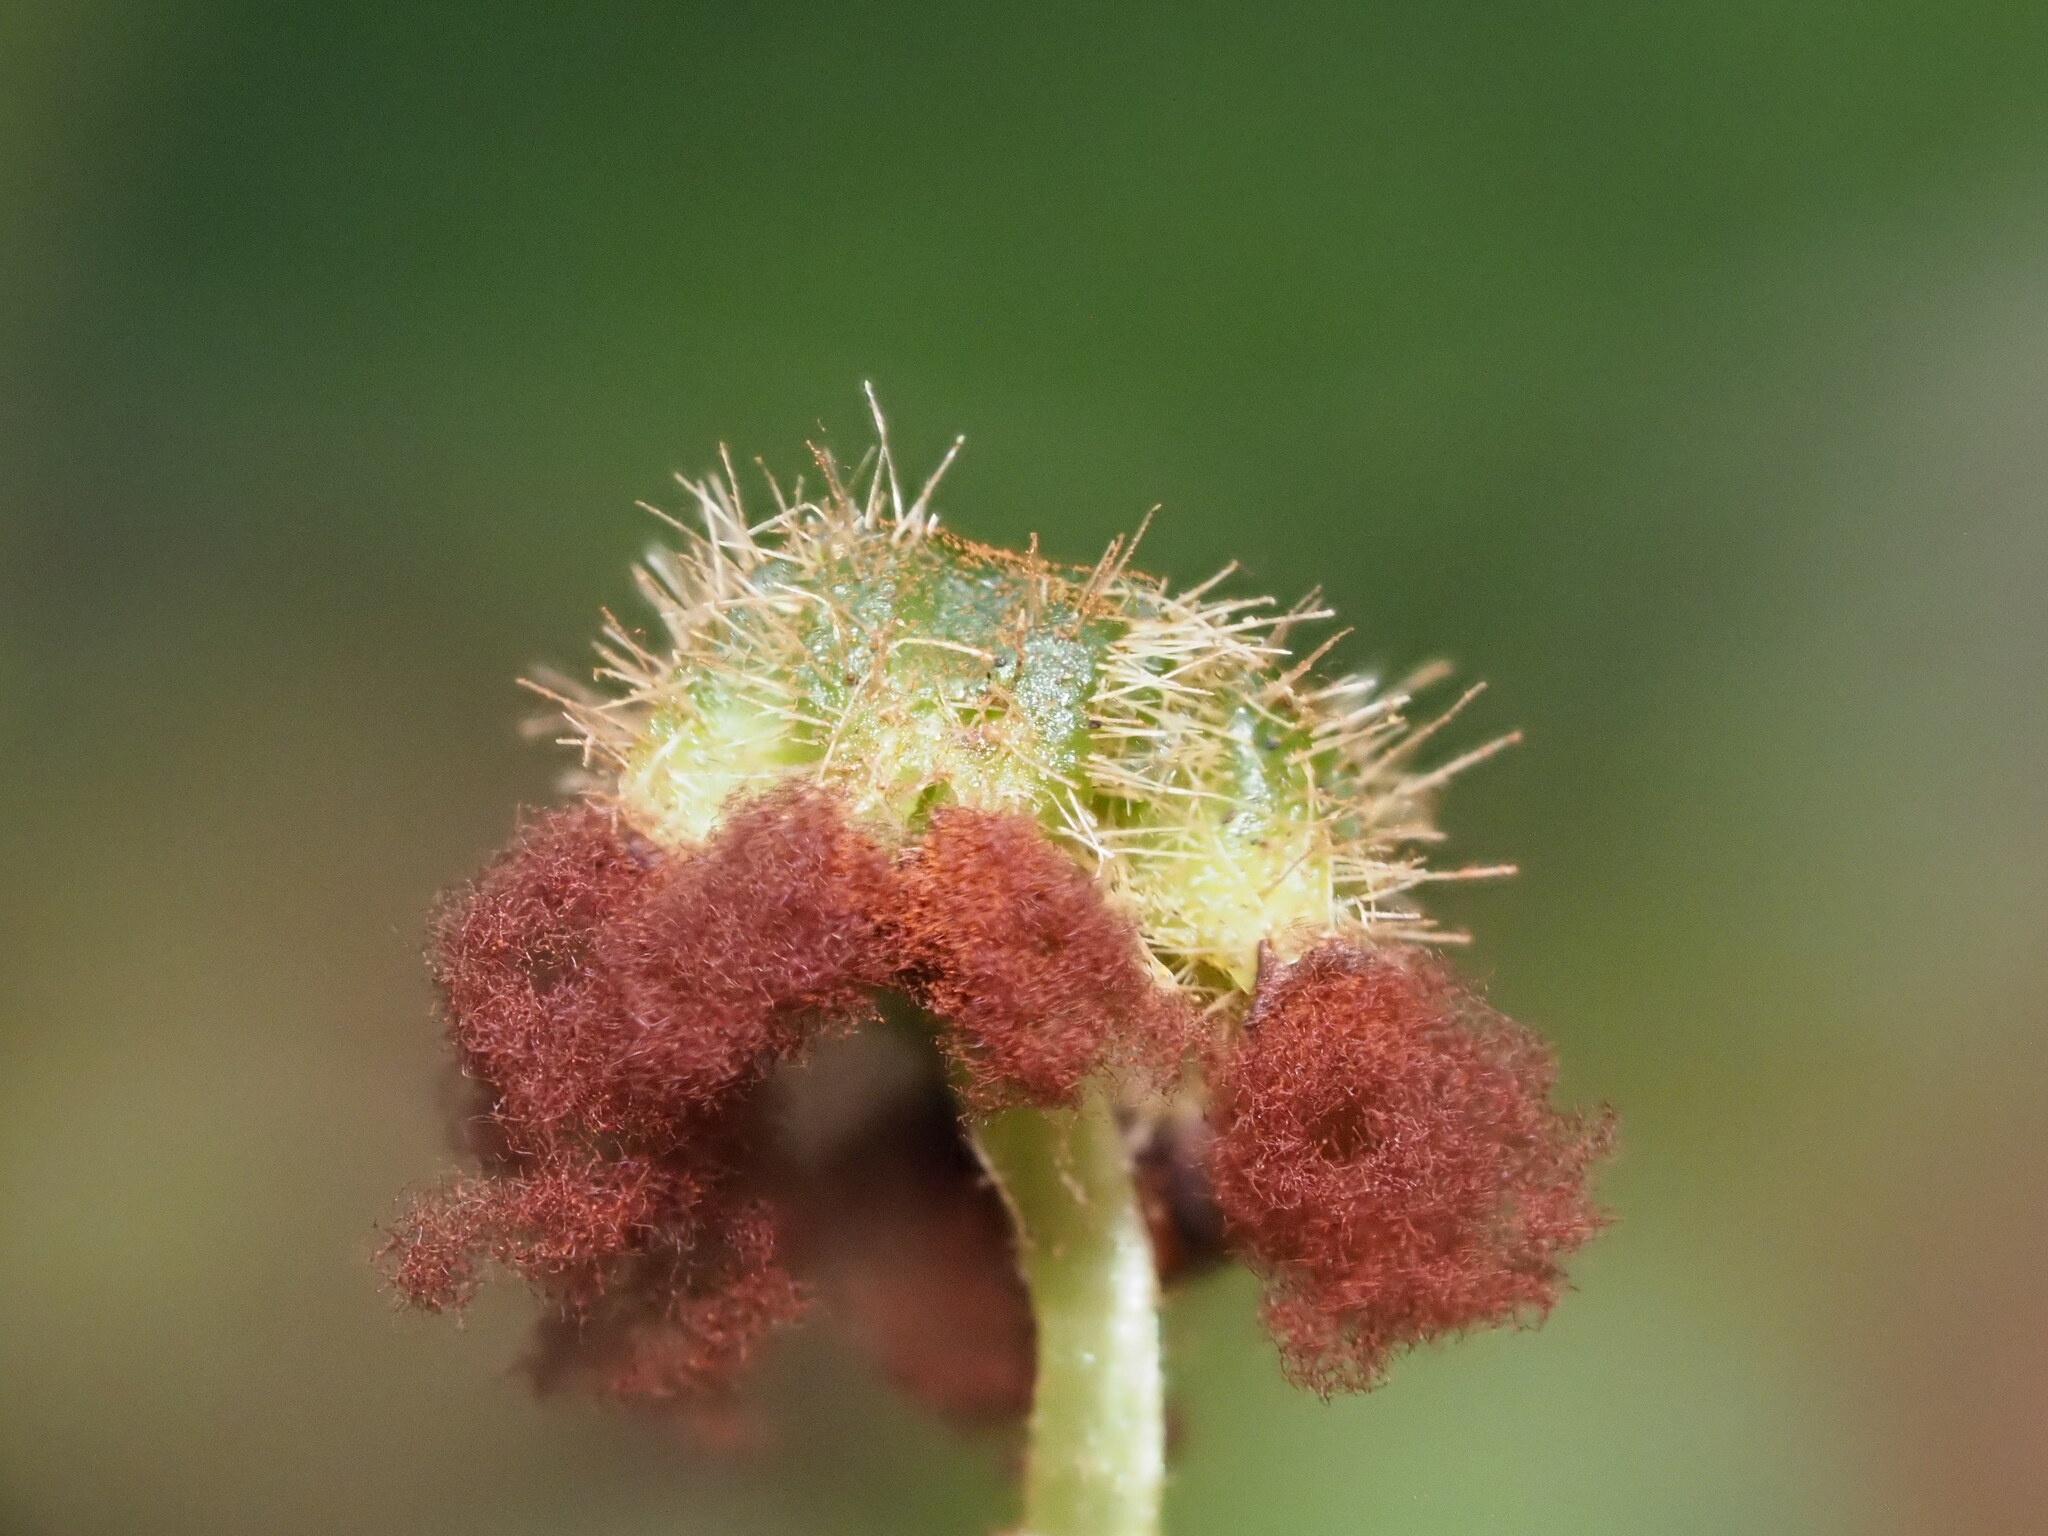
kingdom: Plantae
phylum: Marchantiophyta
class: Marchantiopsida
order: Marchantiales
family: Dumortieraceae
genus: Dumortiera
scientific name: Dumortiera hirsuta
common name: Dumortier's liverwort
